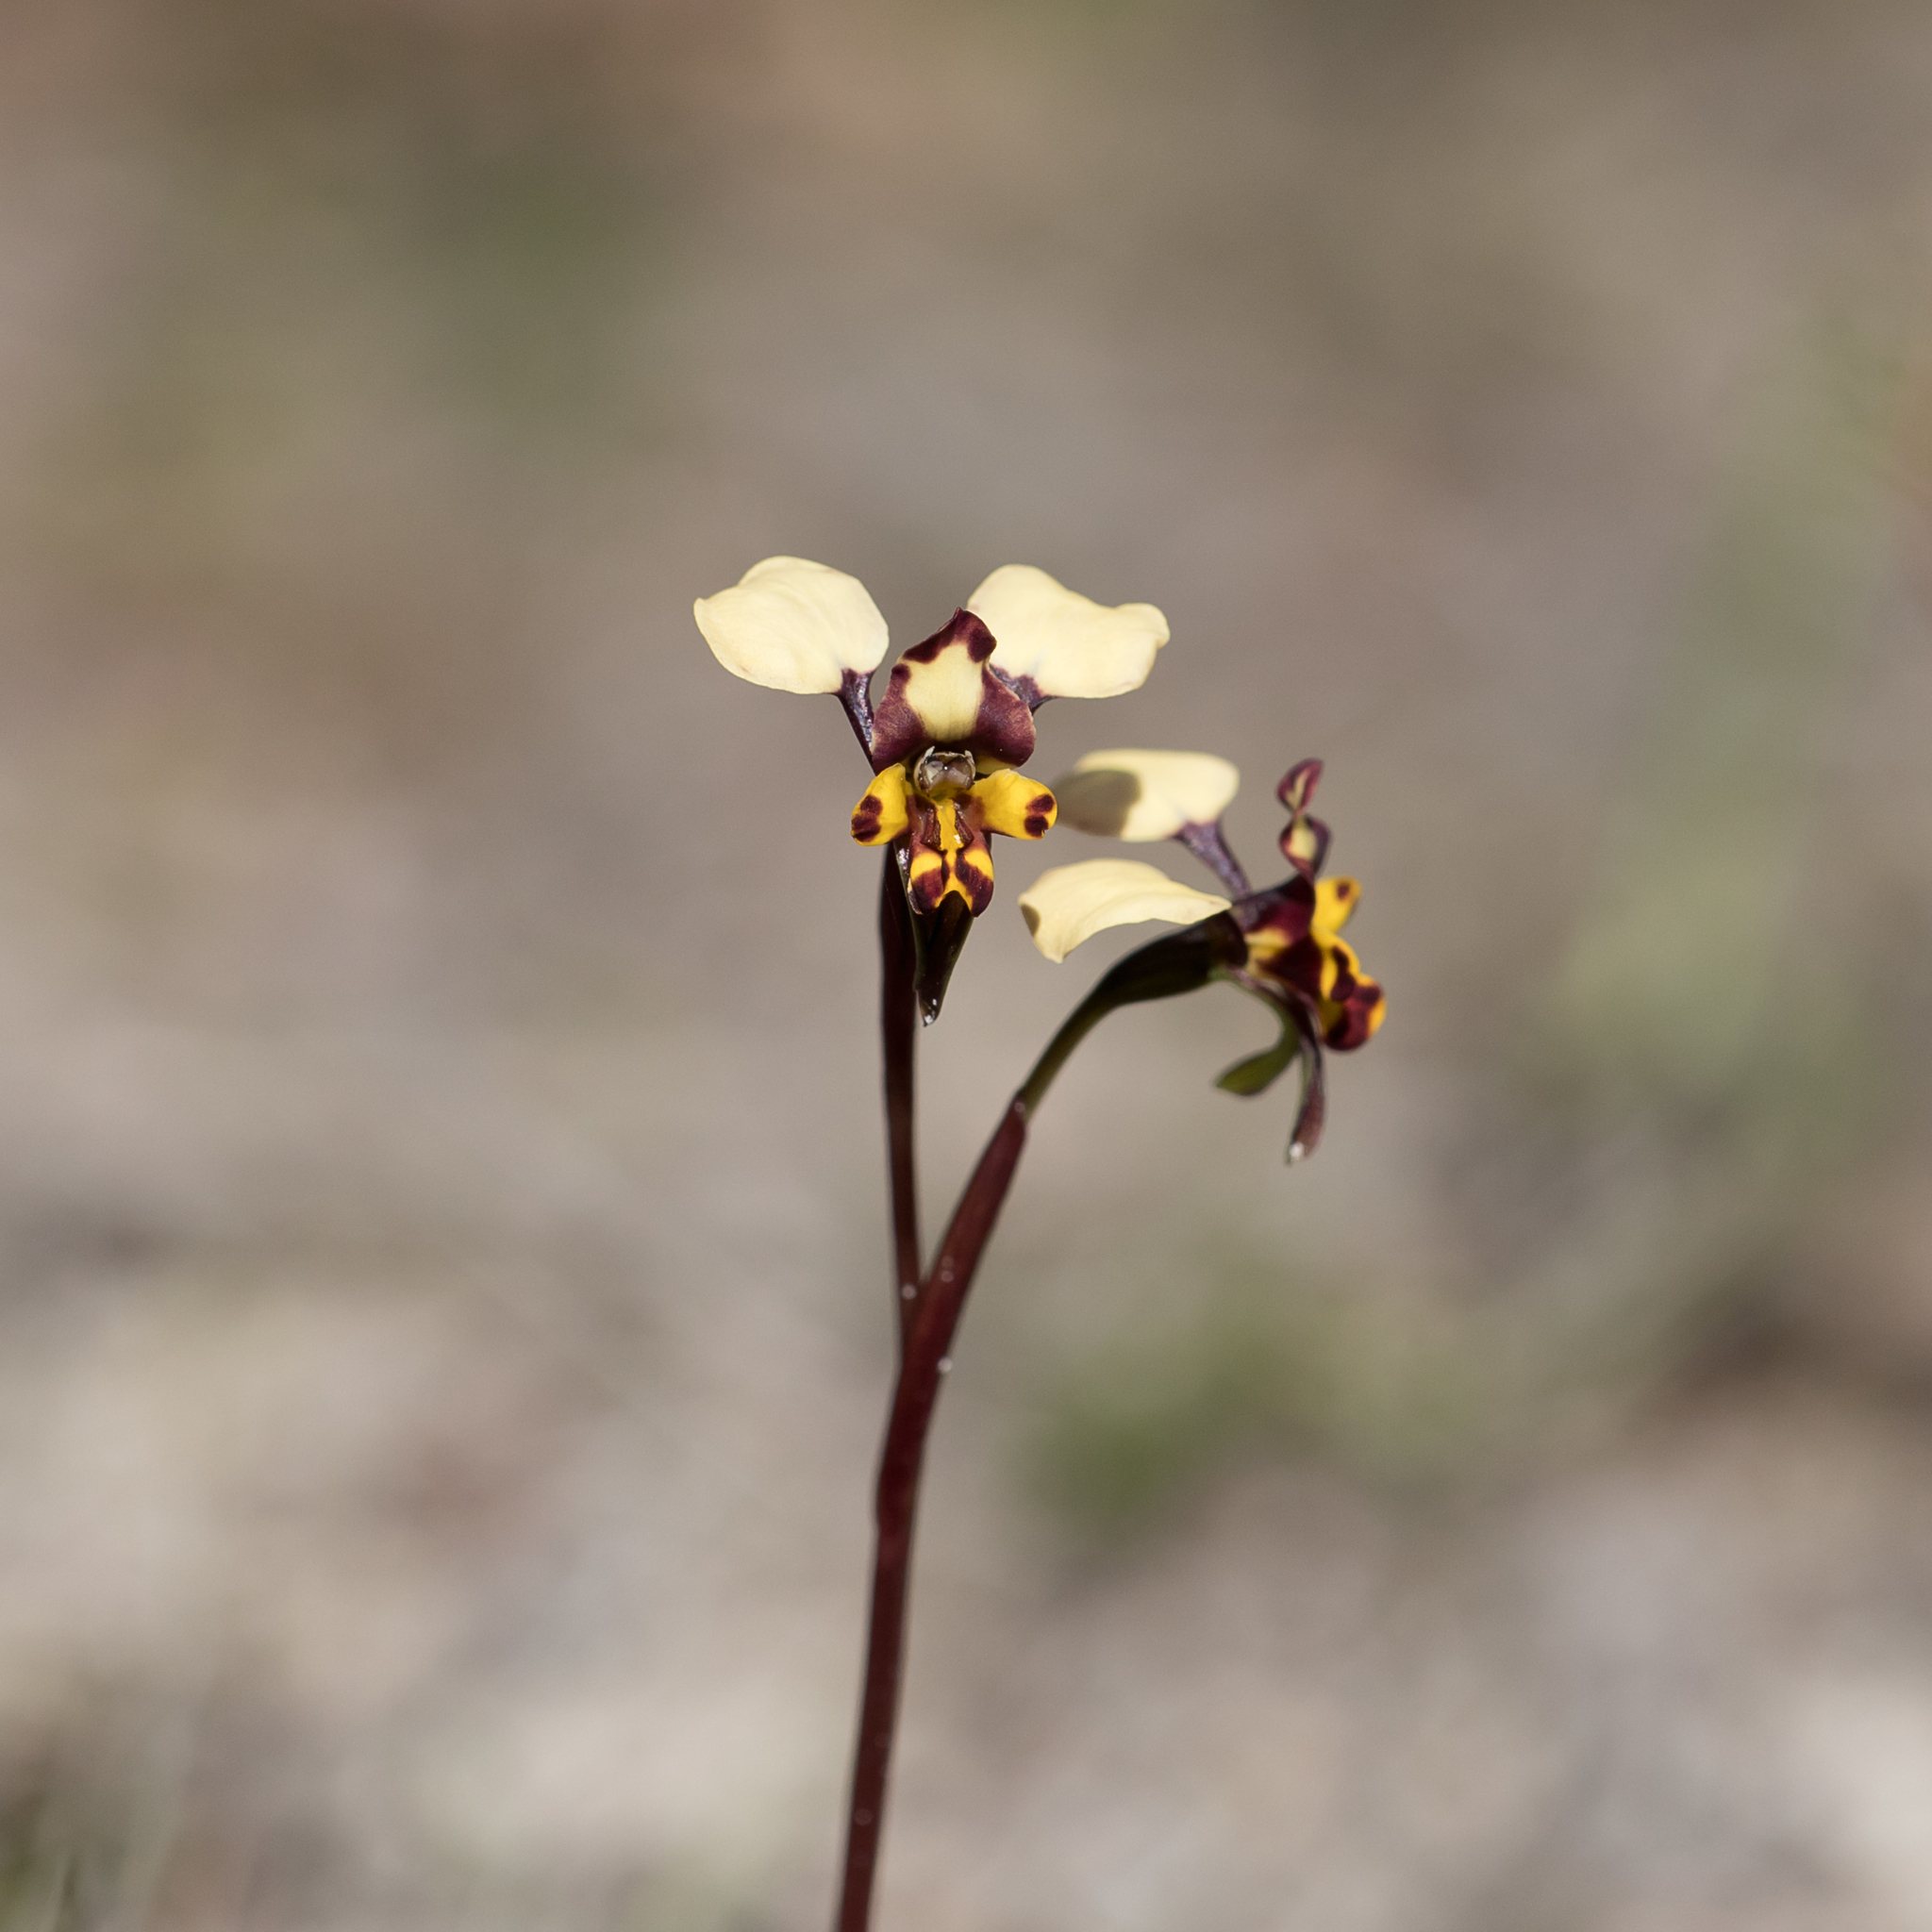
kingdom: Plantae
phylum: Tracheophyta
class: Liliopsida
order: Asparagales
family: Orchidaceae
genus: Diuris
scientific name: Diuris pardina
